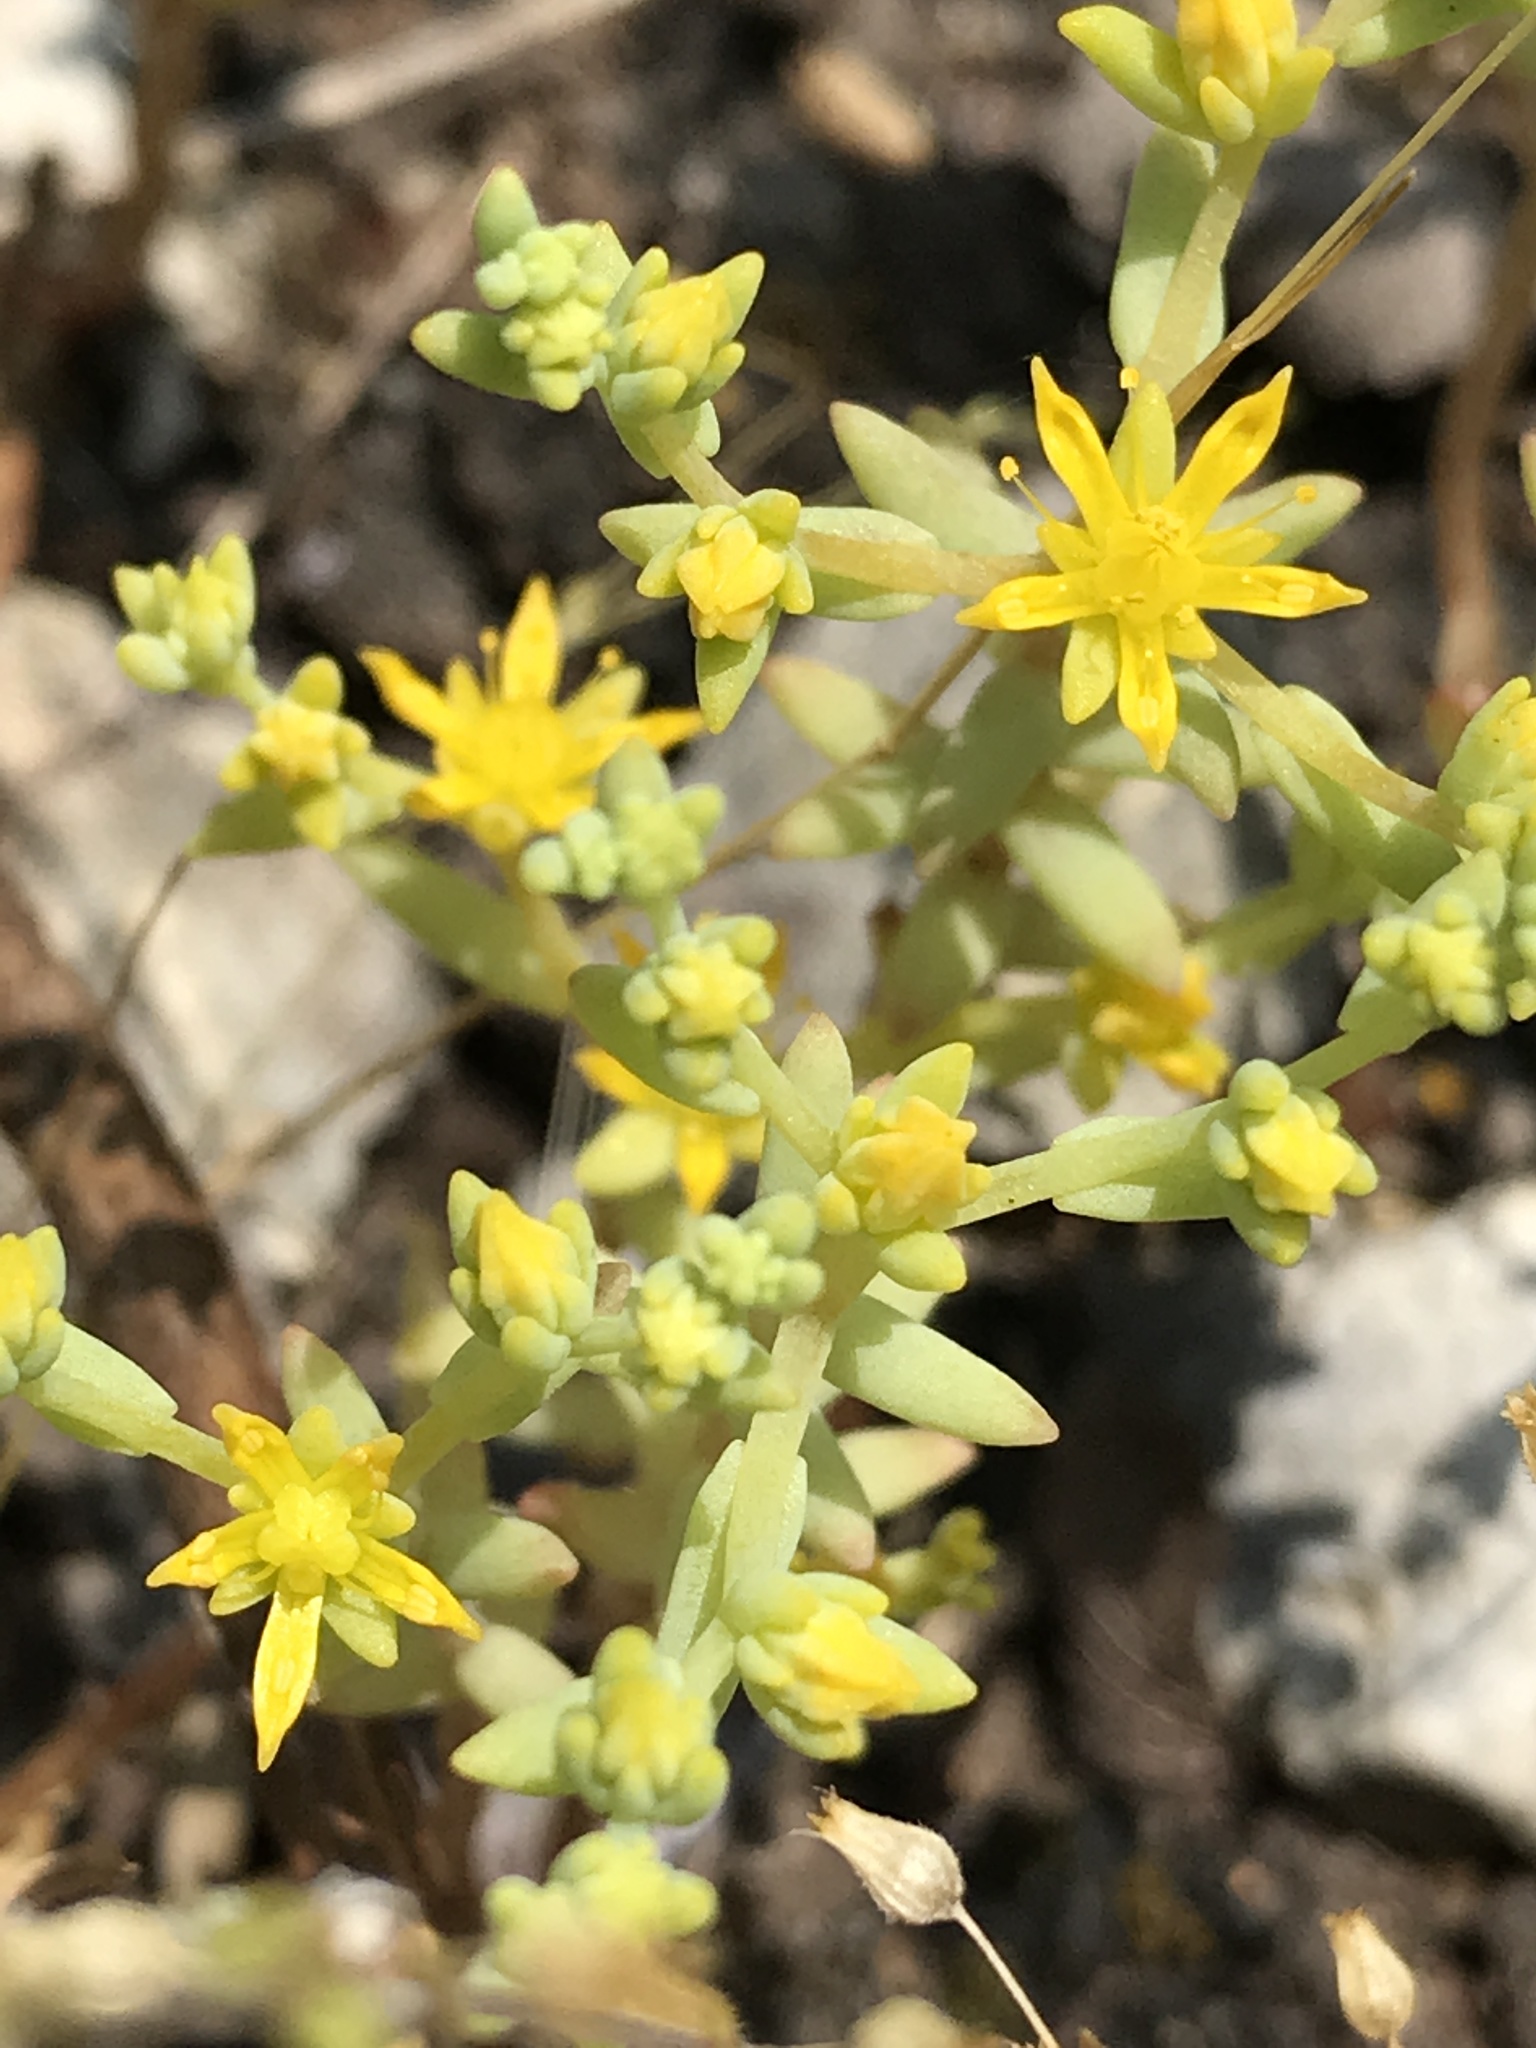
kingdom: Plantae
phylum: Tracheophyta
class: Magnoliopsida
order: Saxifragales
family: Crassulaceae
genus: Sedum
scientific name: Sedum nuttallii
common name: Yellow stonecrop
